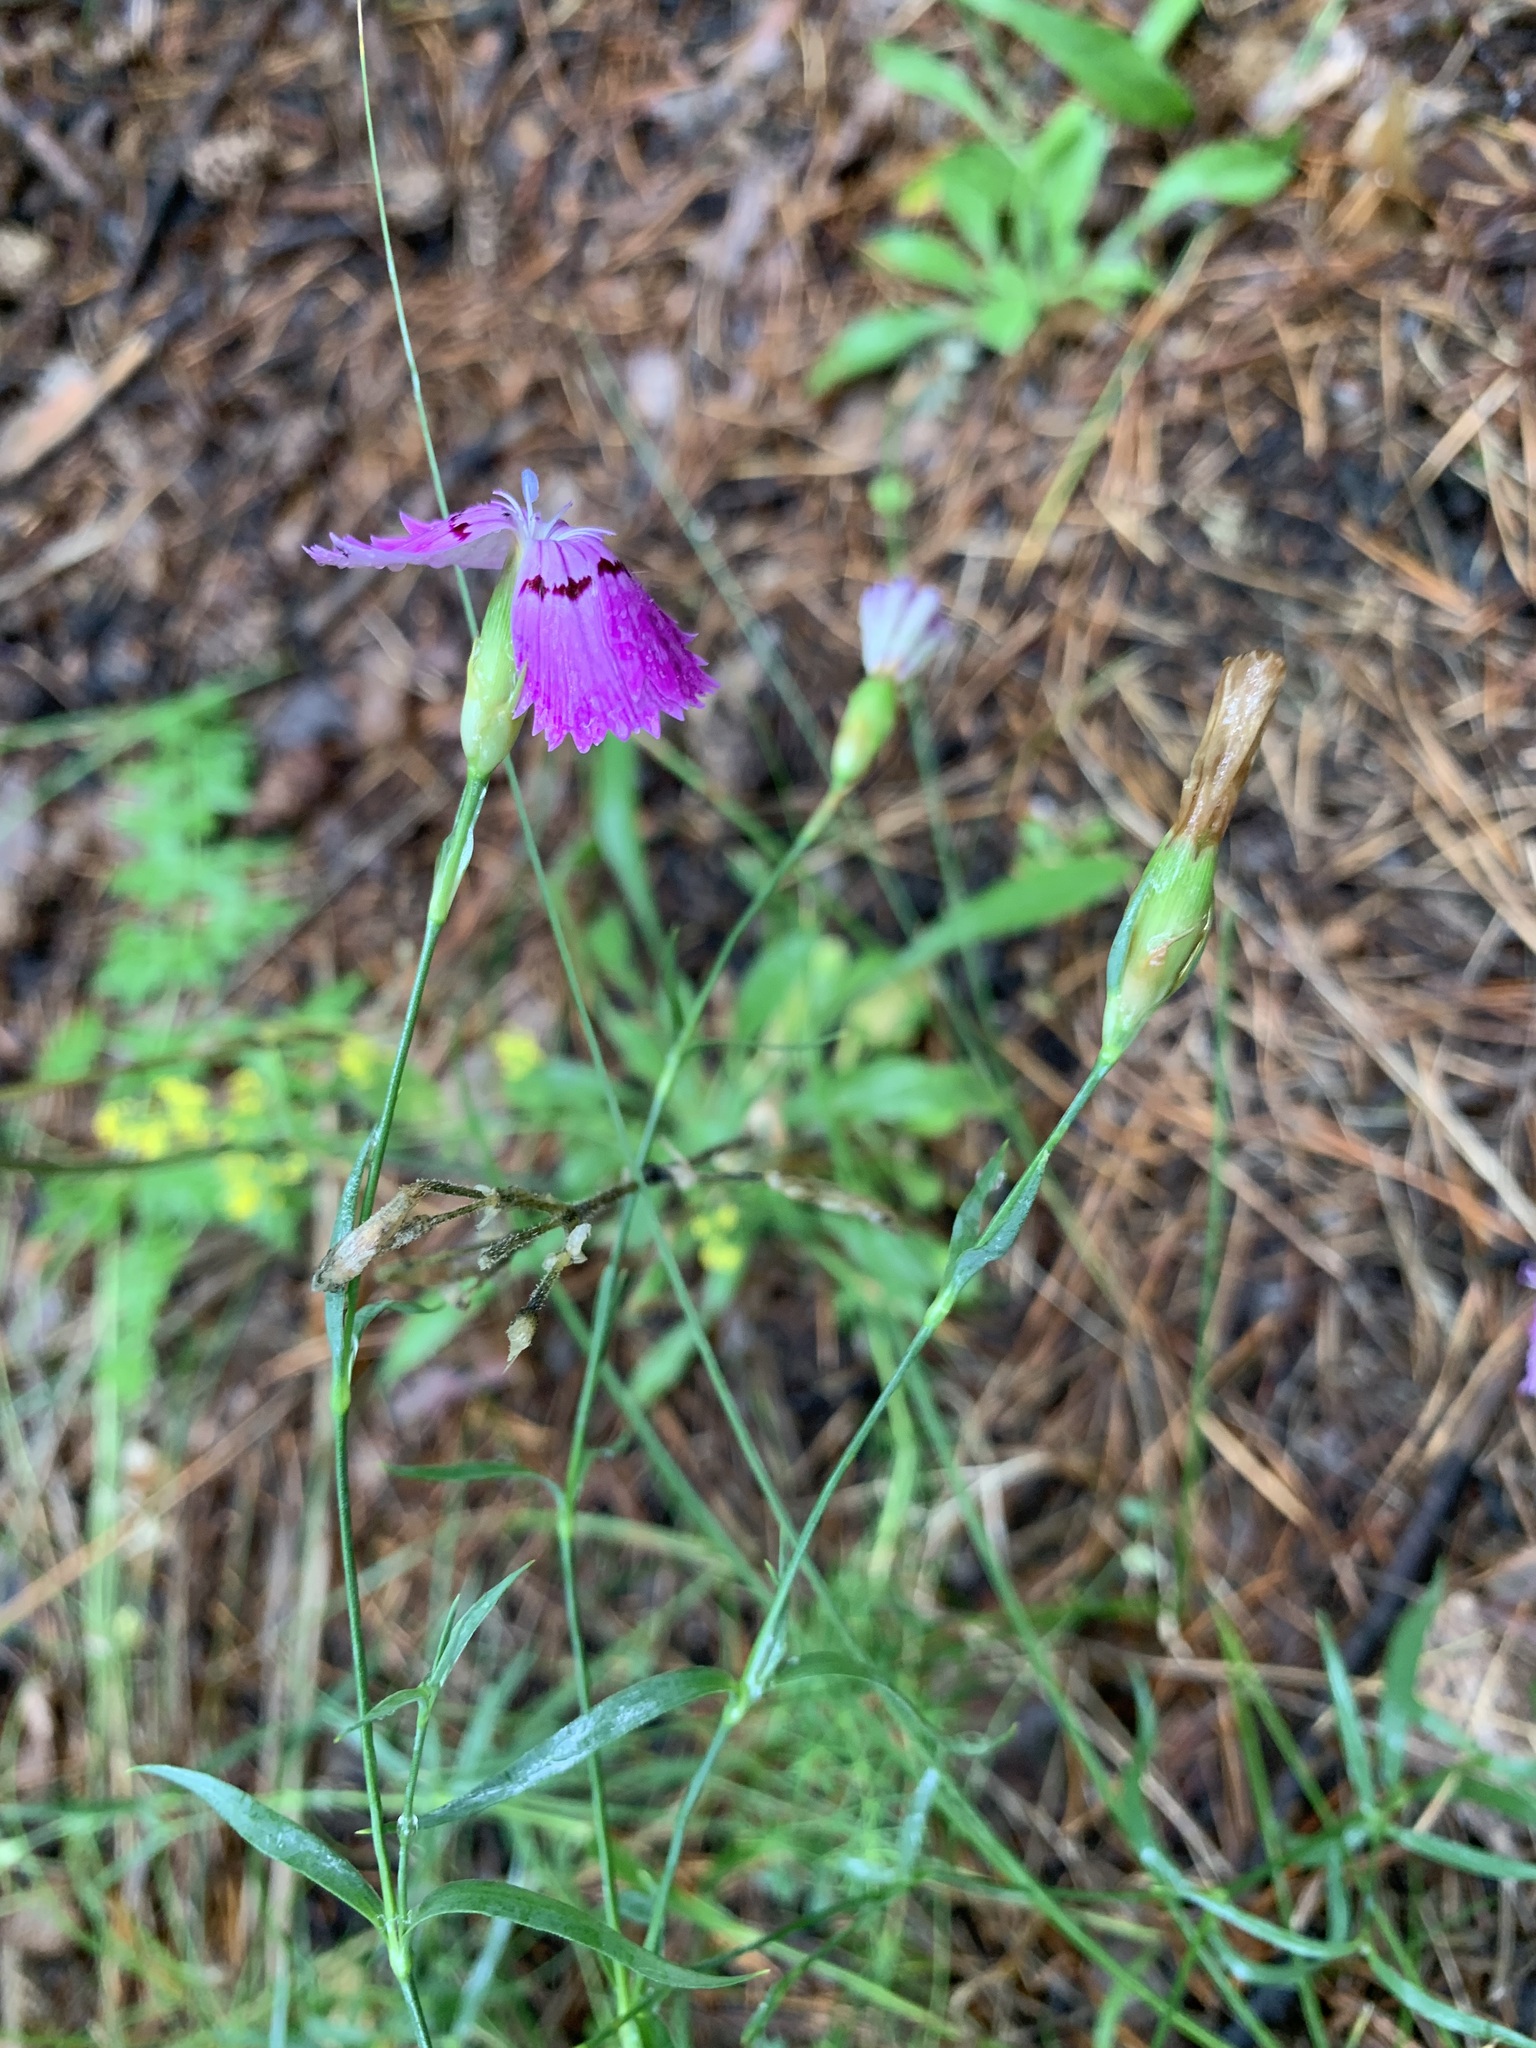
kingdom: Plantae
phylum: Tracheophyta
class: Magnoliopsida
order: Caryophyllales
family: Caryophyllaceae
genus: Dianthus
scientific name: Dianthus chinensis
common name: Rainbow pink
